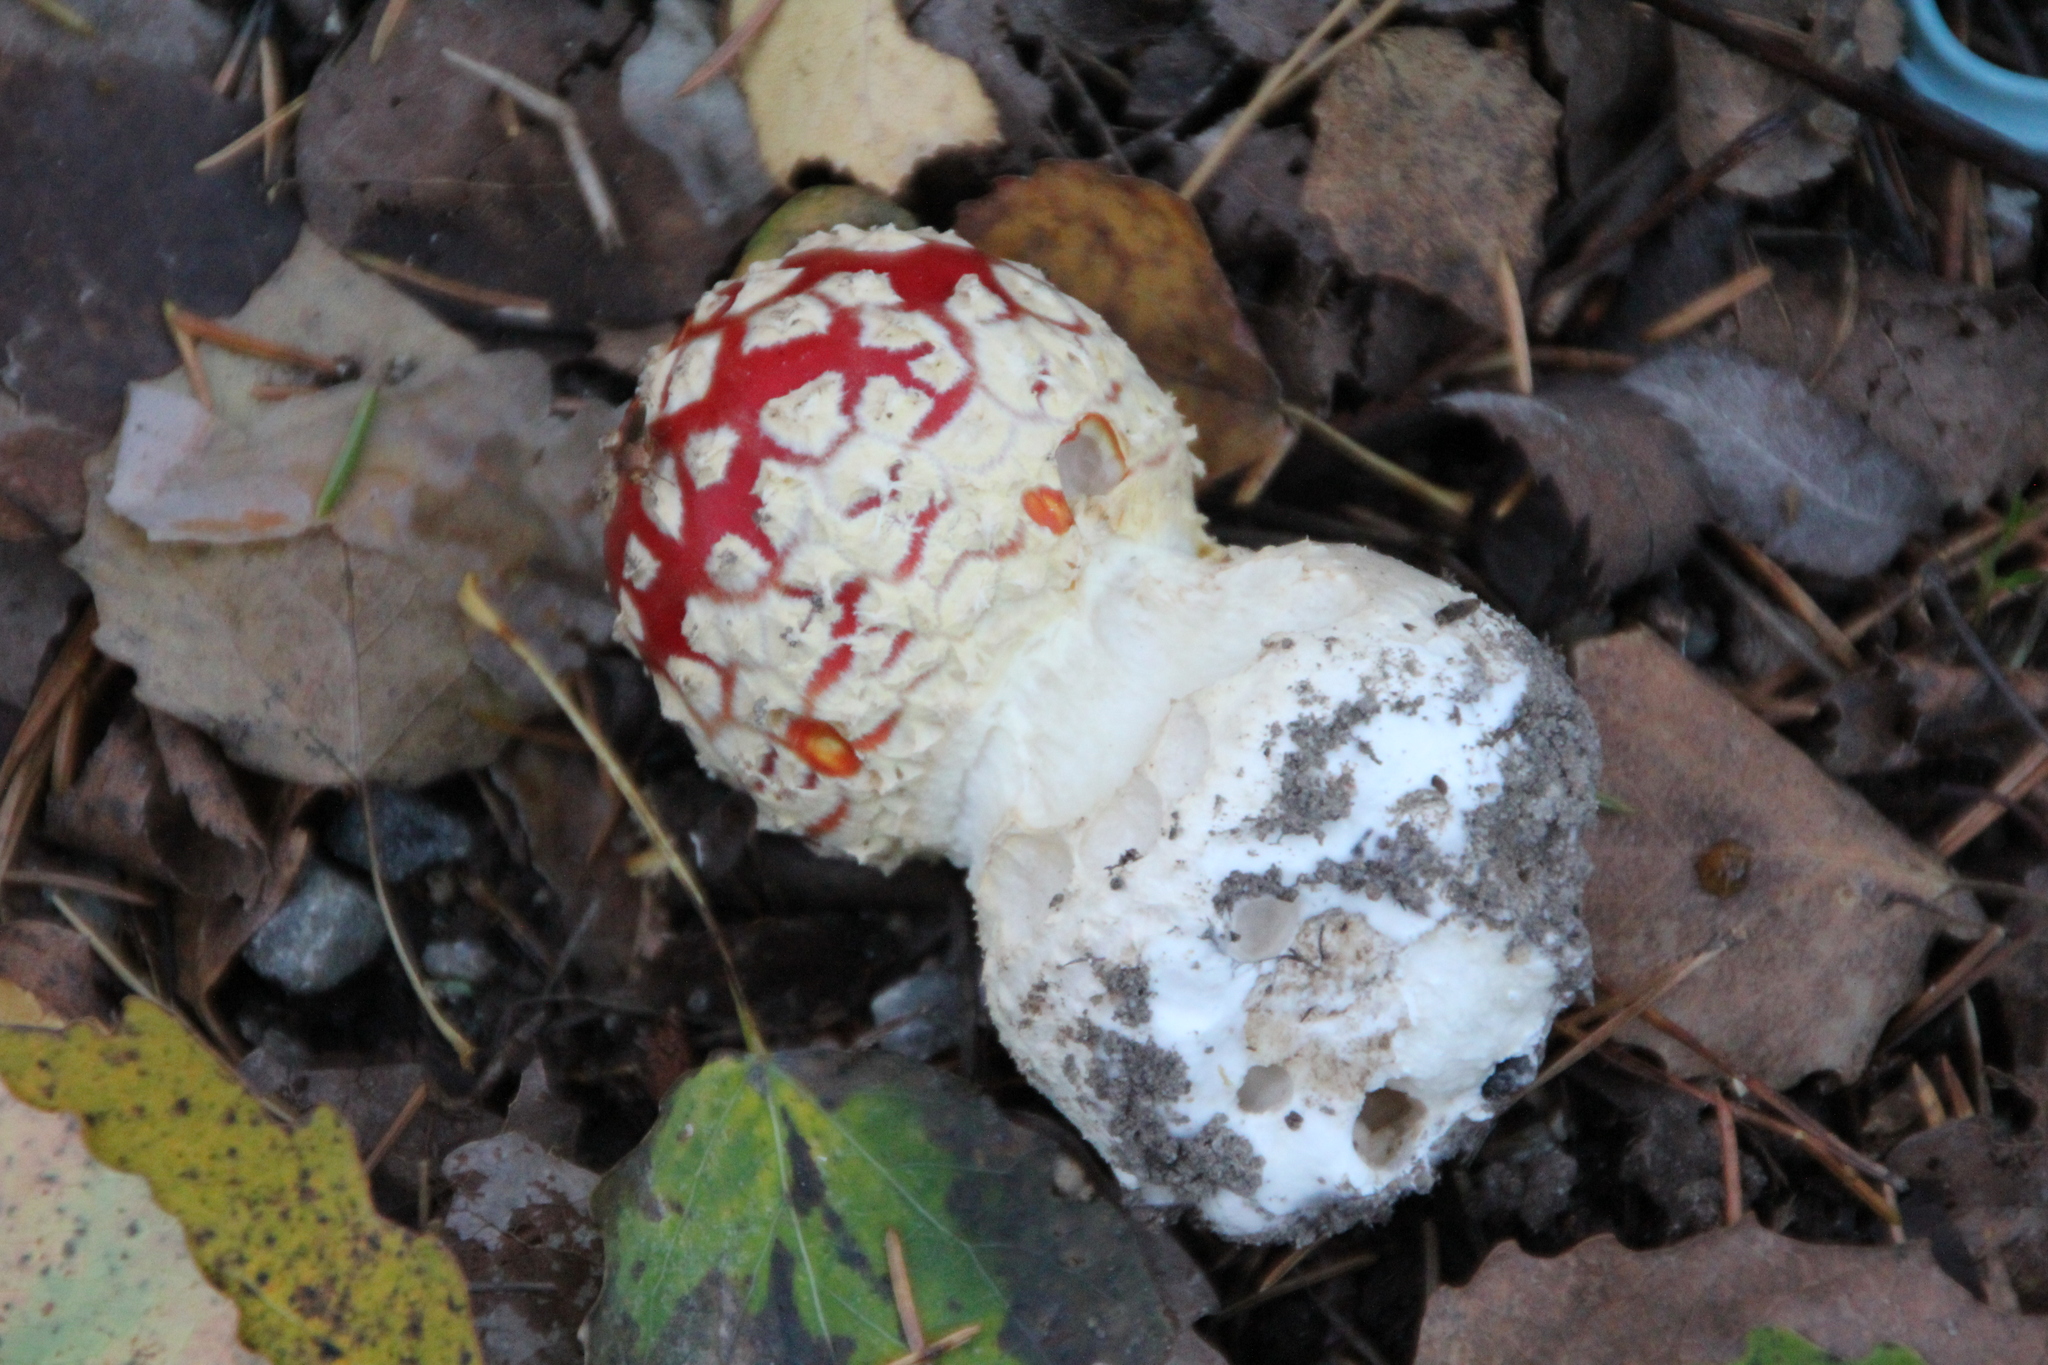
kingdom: Fungi
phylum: Basidiomycota
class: Agaricomycetes
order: Agaricales
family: Amanitaceae
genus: Amanita
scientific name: Amanita muscaria
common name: Fly agaric
